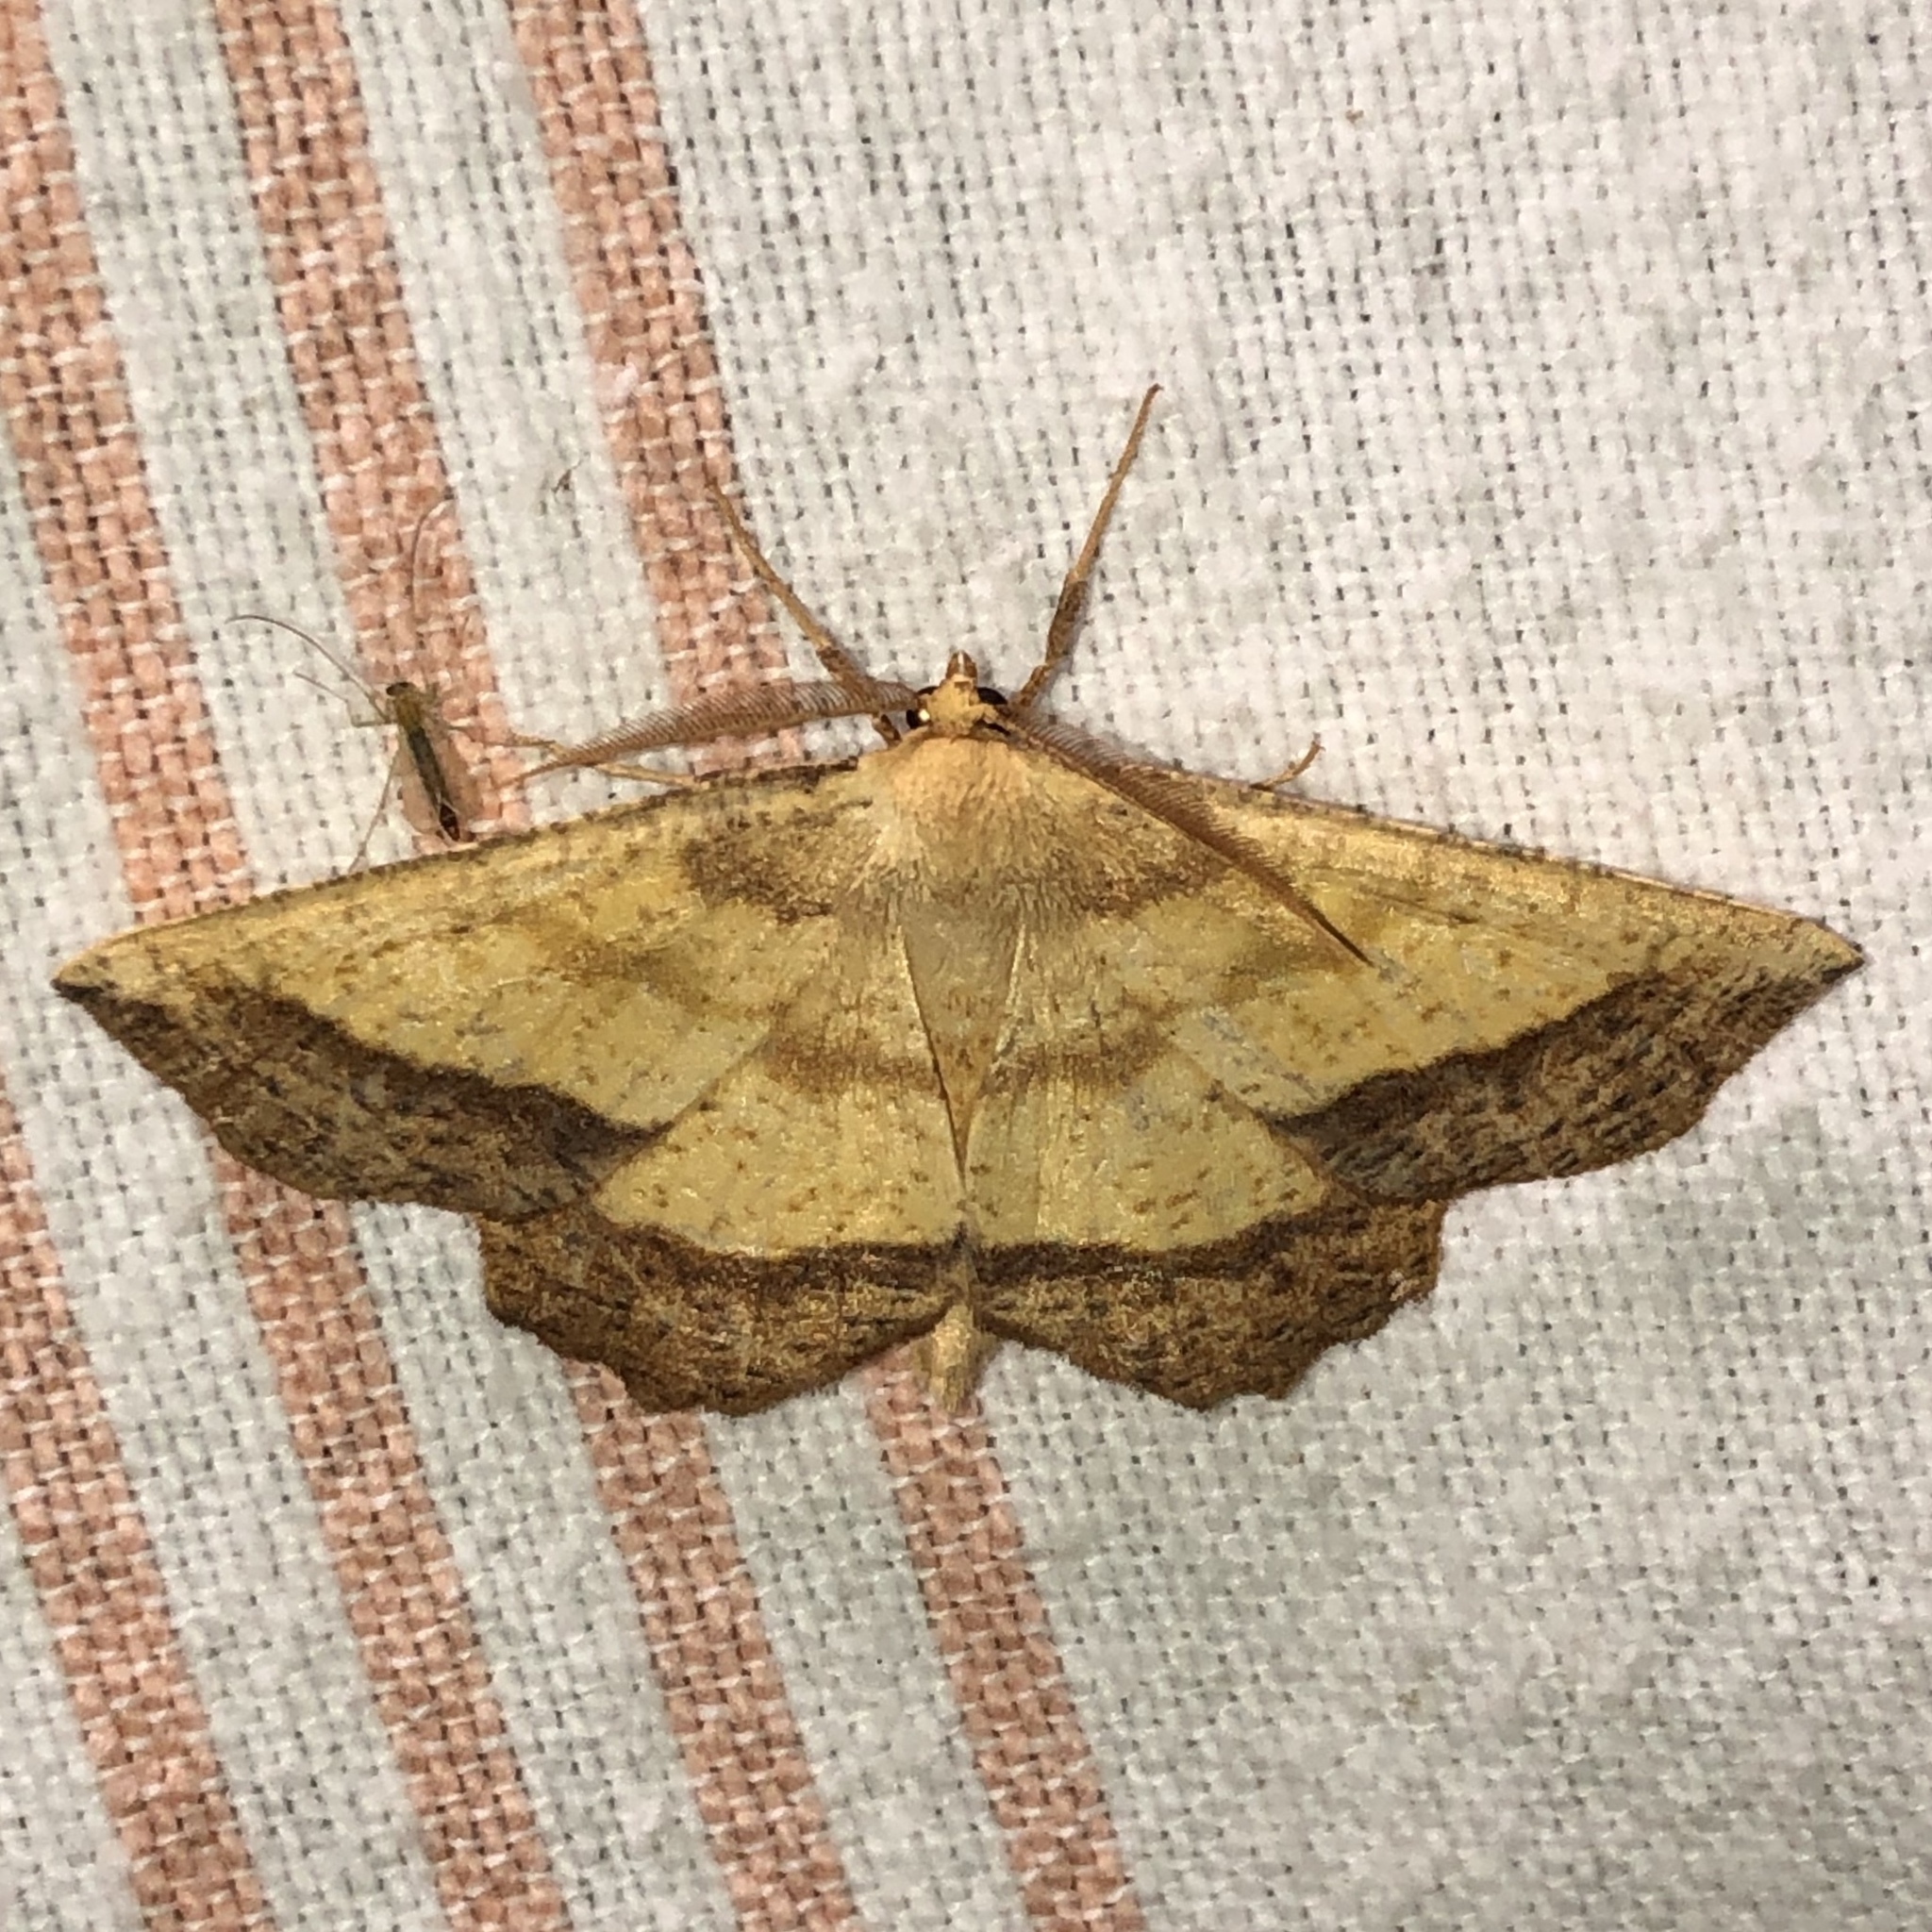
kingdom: Animalia
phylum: Arthropoda
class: Insecta
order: Lepidoptera
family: Geometridae
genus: Euchlaena
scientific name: Euchlaena serrata
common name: Saw wing
